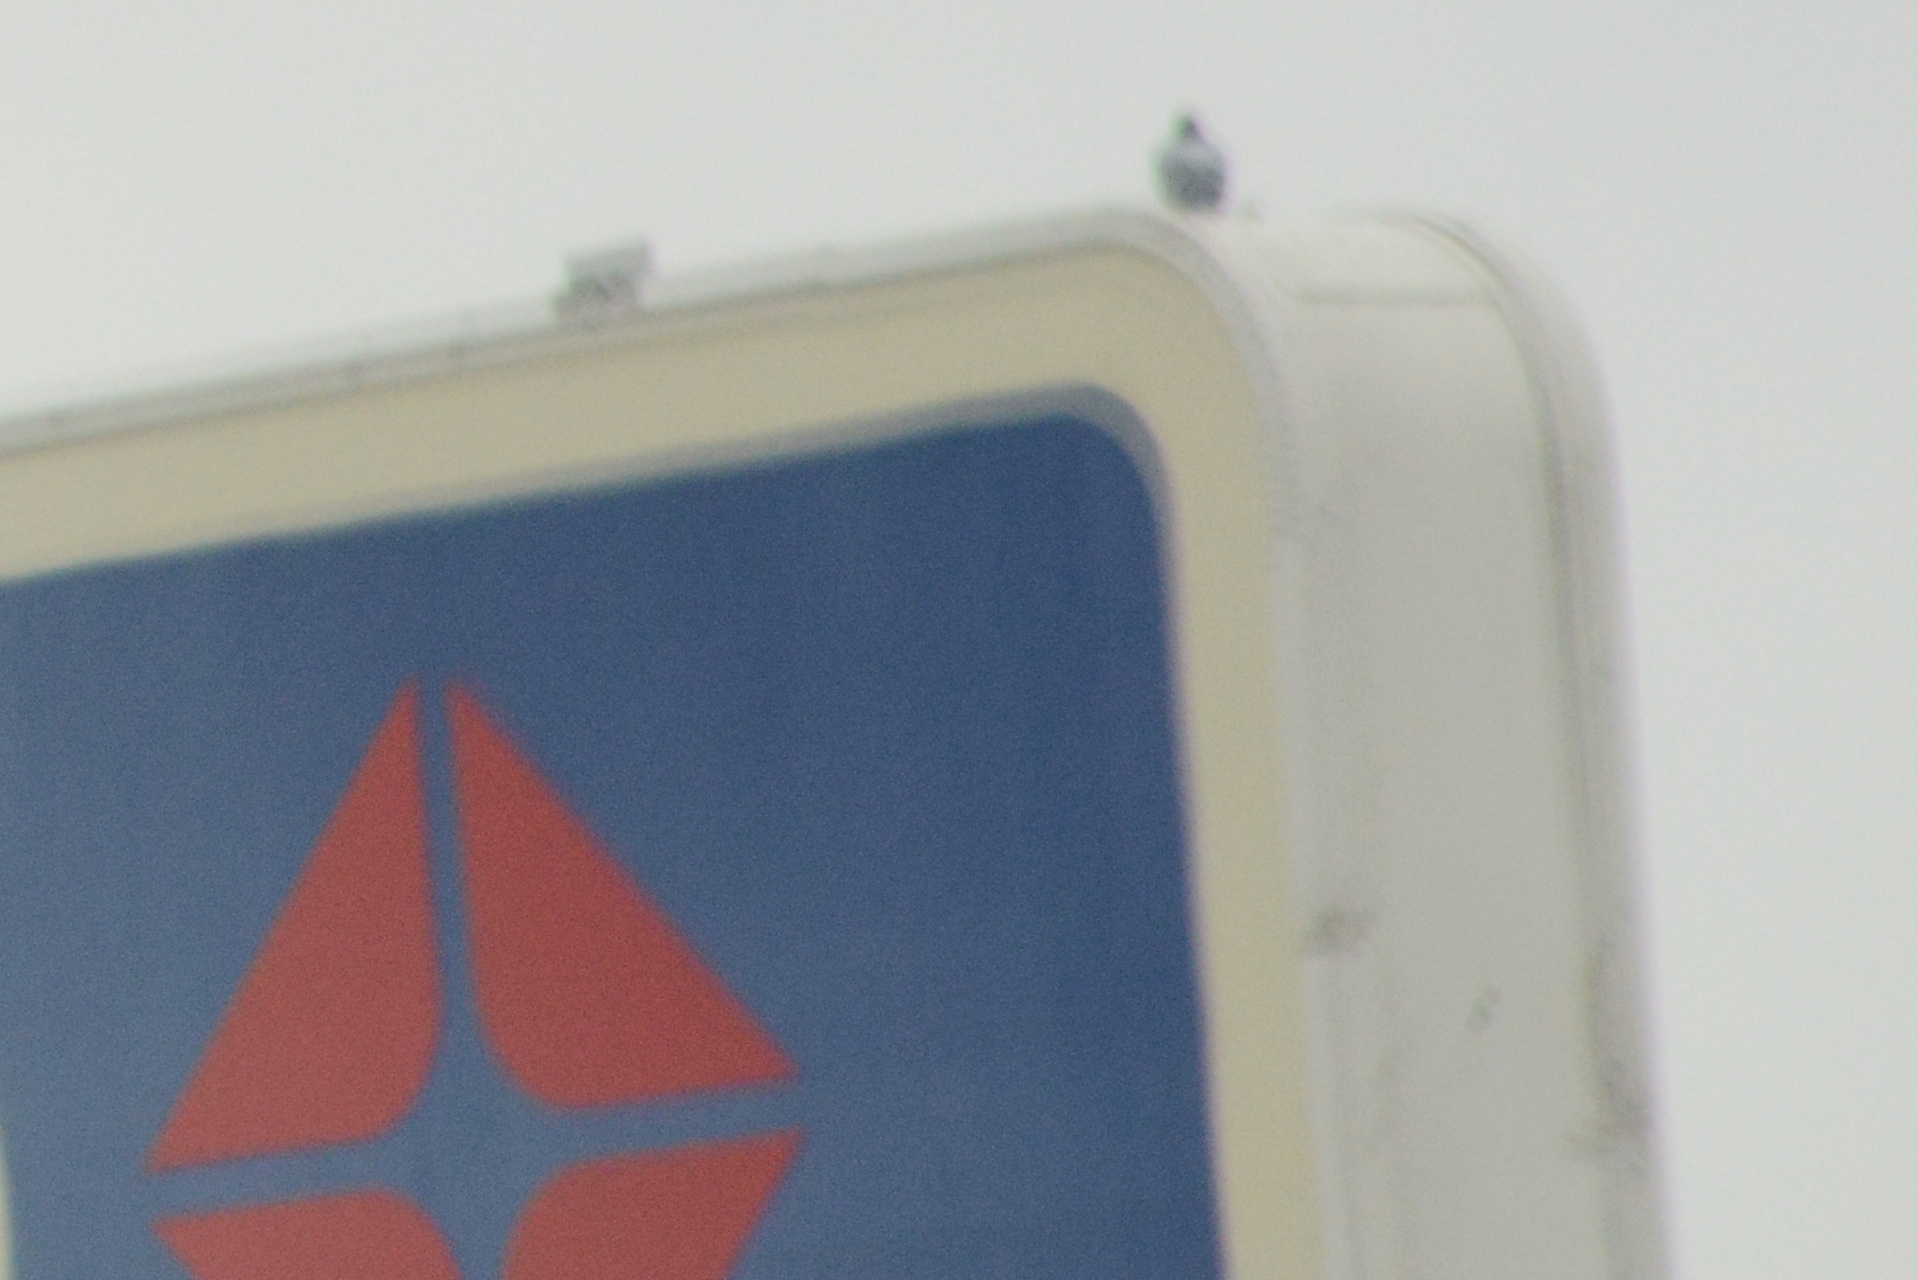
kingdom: Animalia
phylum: Chordata
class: Aves
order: Columbiformes
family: Columbidae
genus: Columba
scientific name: Columba livia
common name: Rock pigeon
